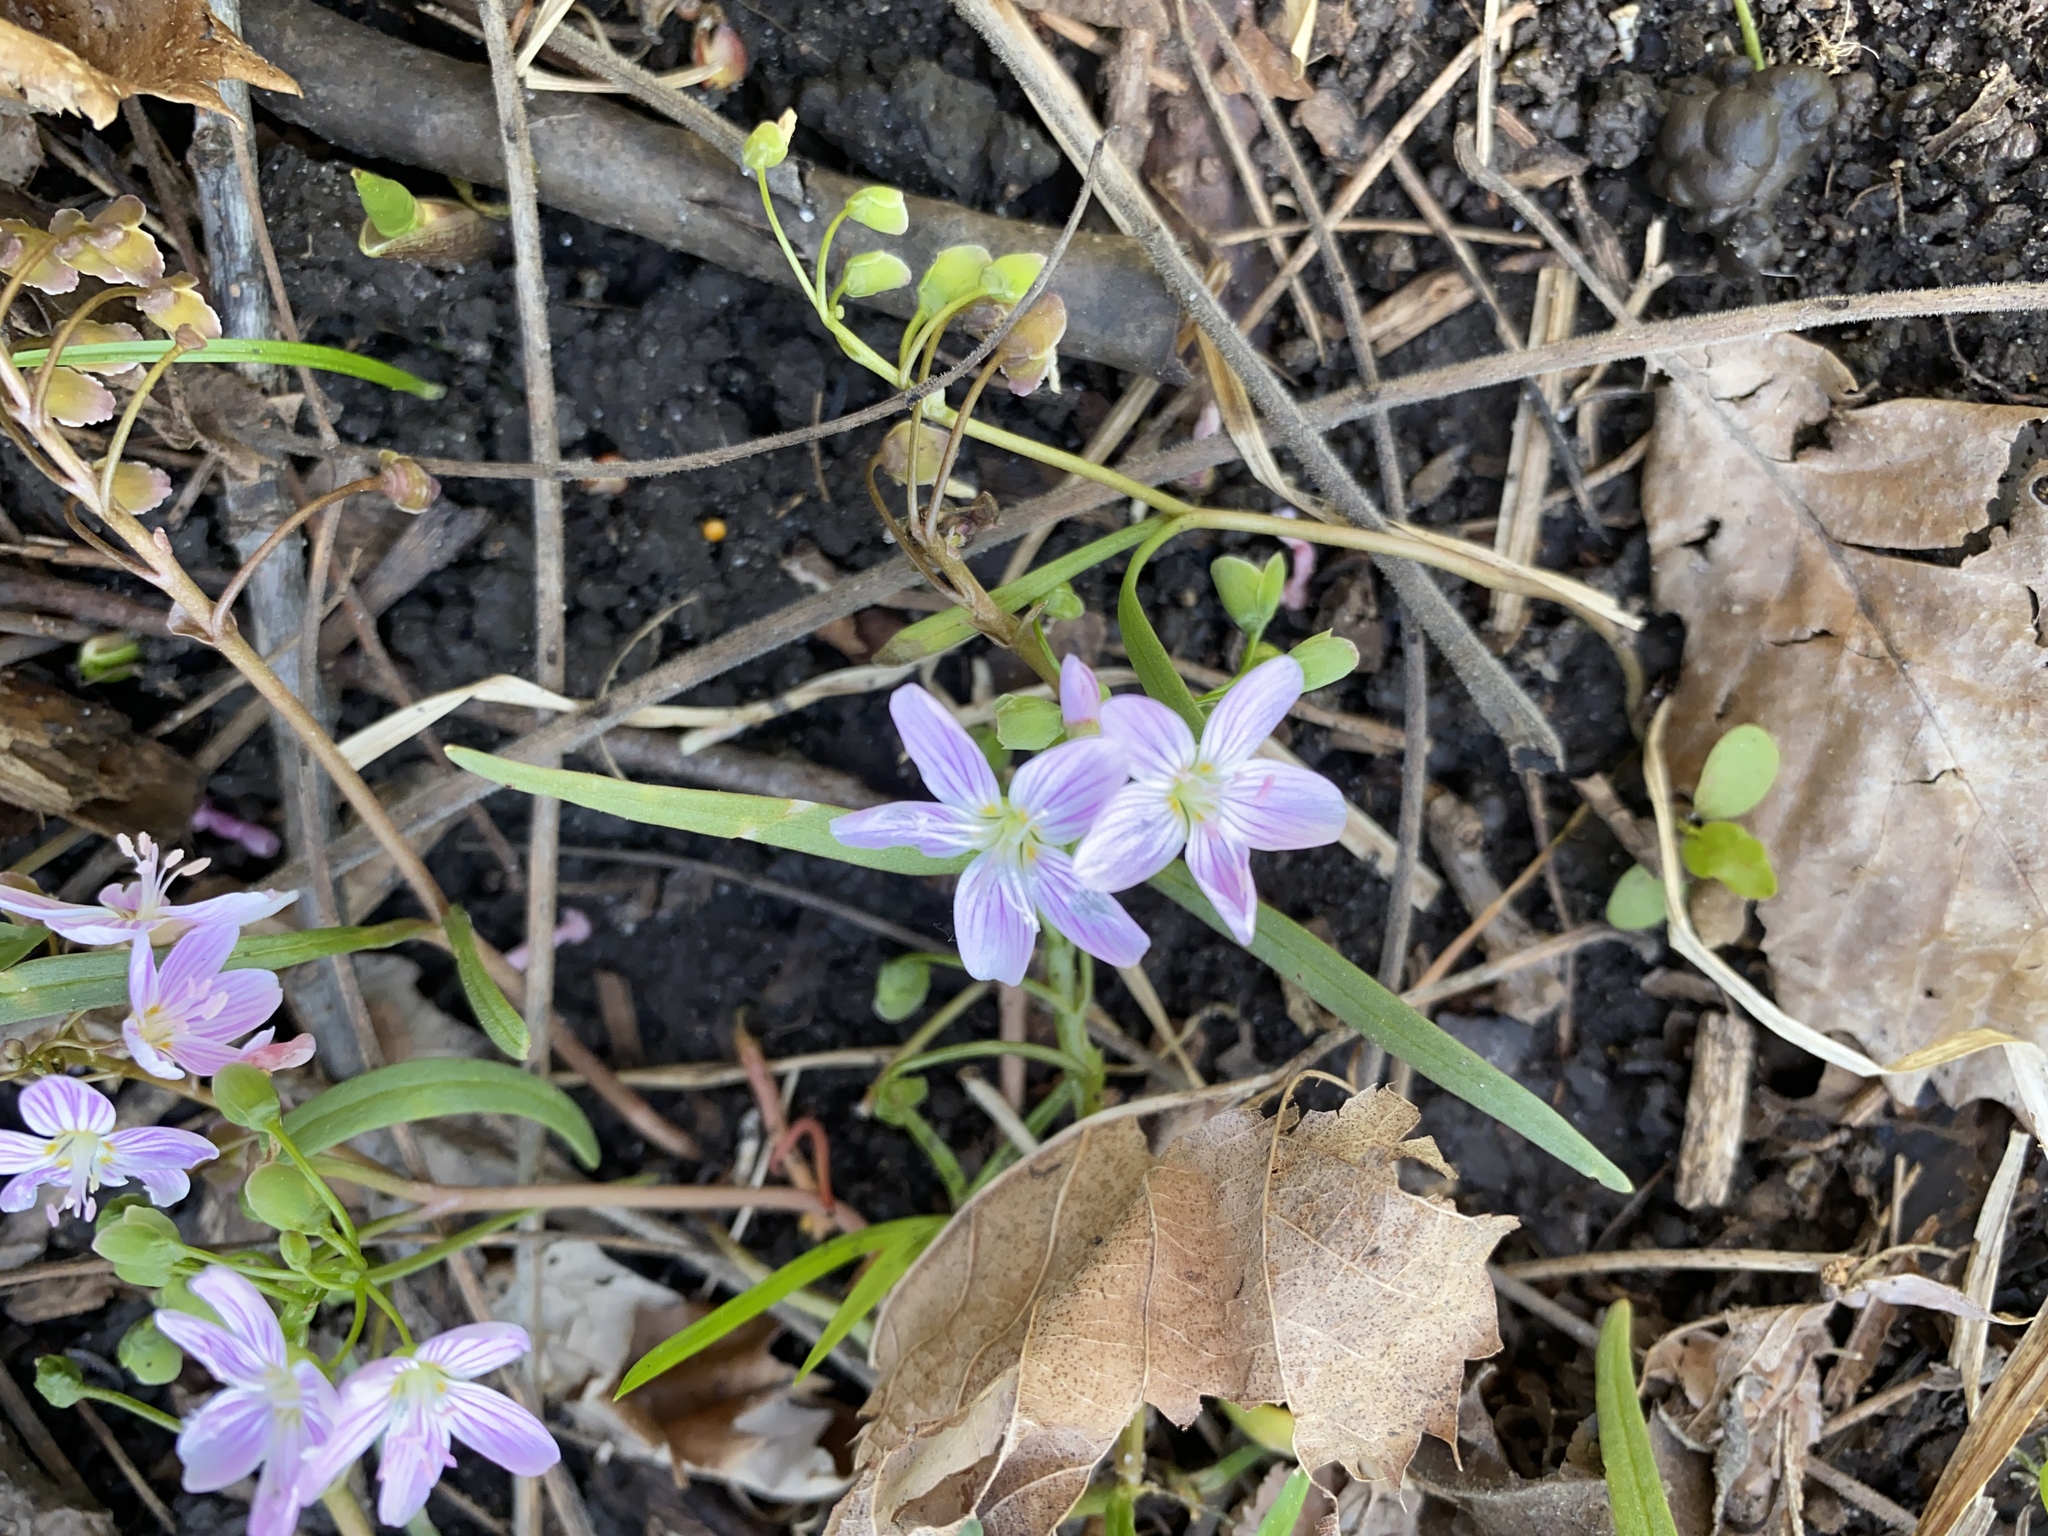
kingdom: Plantae
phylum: Tracheophyta
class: Magnoliopsida
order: Caryophyllales
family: Montiaceae
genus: Claytonia
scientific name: Claytonia virginica
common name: Virginia springbeauty
